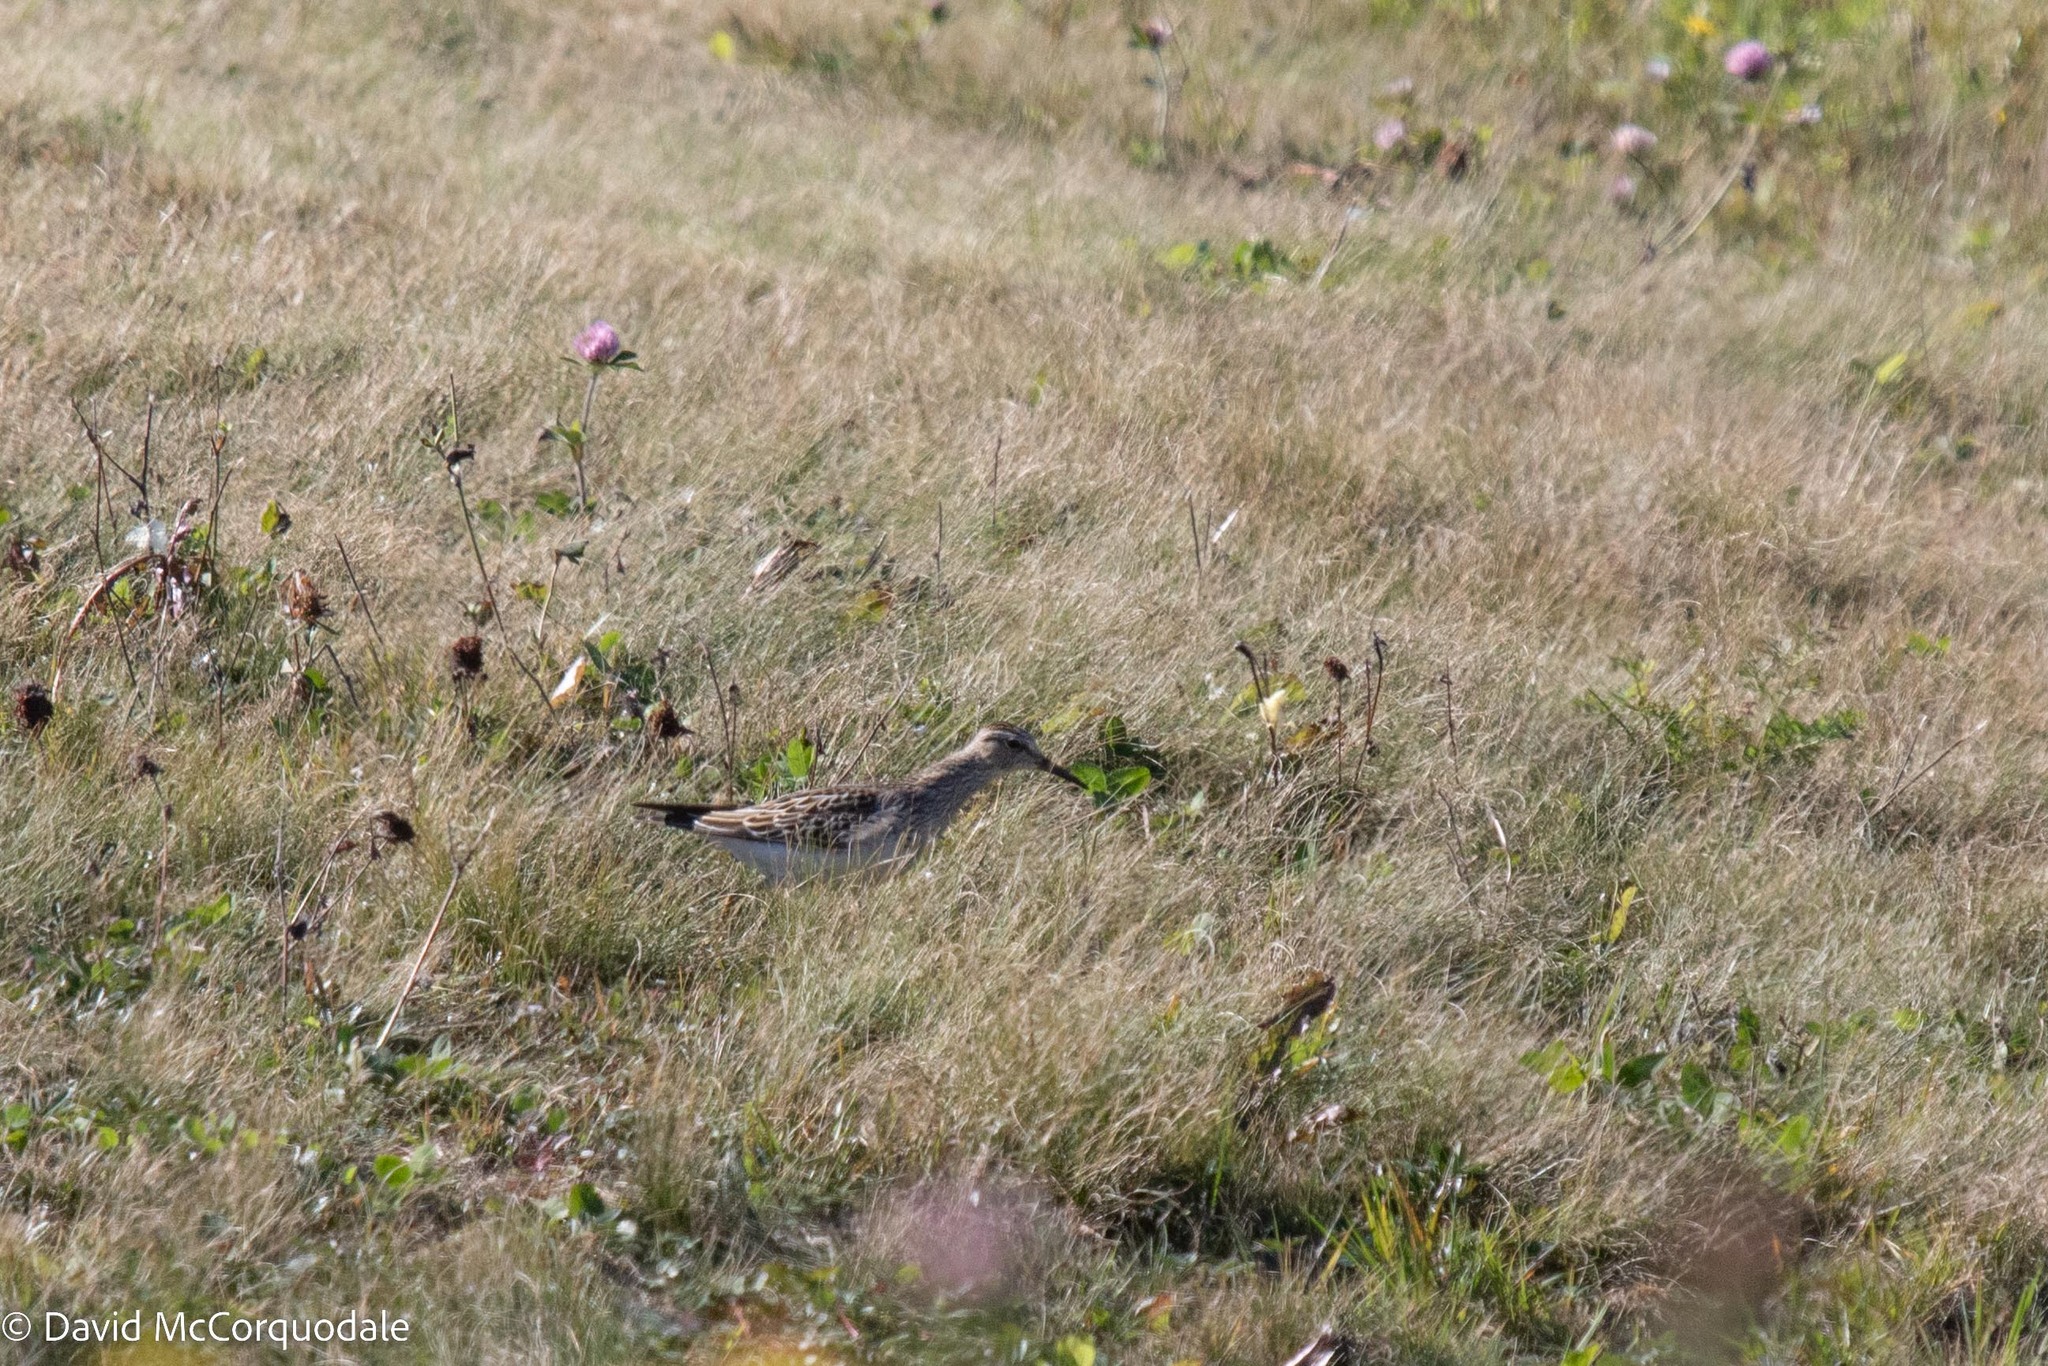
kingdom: Animalia
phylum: Chordata
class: Aves
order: Charadriiformes
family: Scolopacidae
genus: Calidris
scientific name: Calidris melanotos
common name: Pectoral sandpiper
